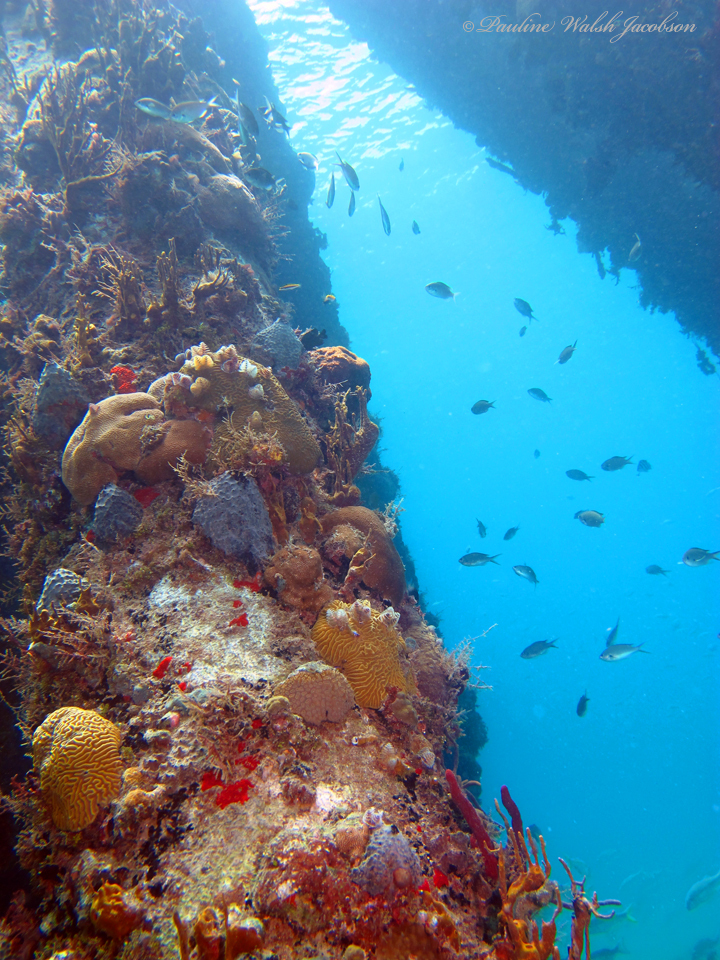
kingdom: Animalia
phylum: Chordata
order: Perciformes
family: Pomacentridae
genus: Chromis
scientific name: Chromis multilineata
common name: Brown chromis
